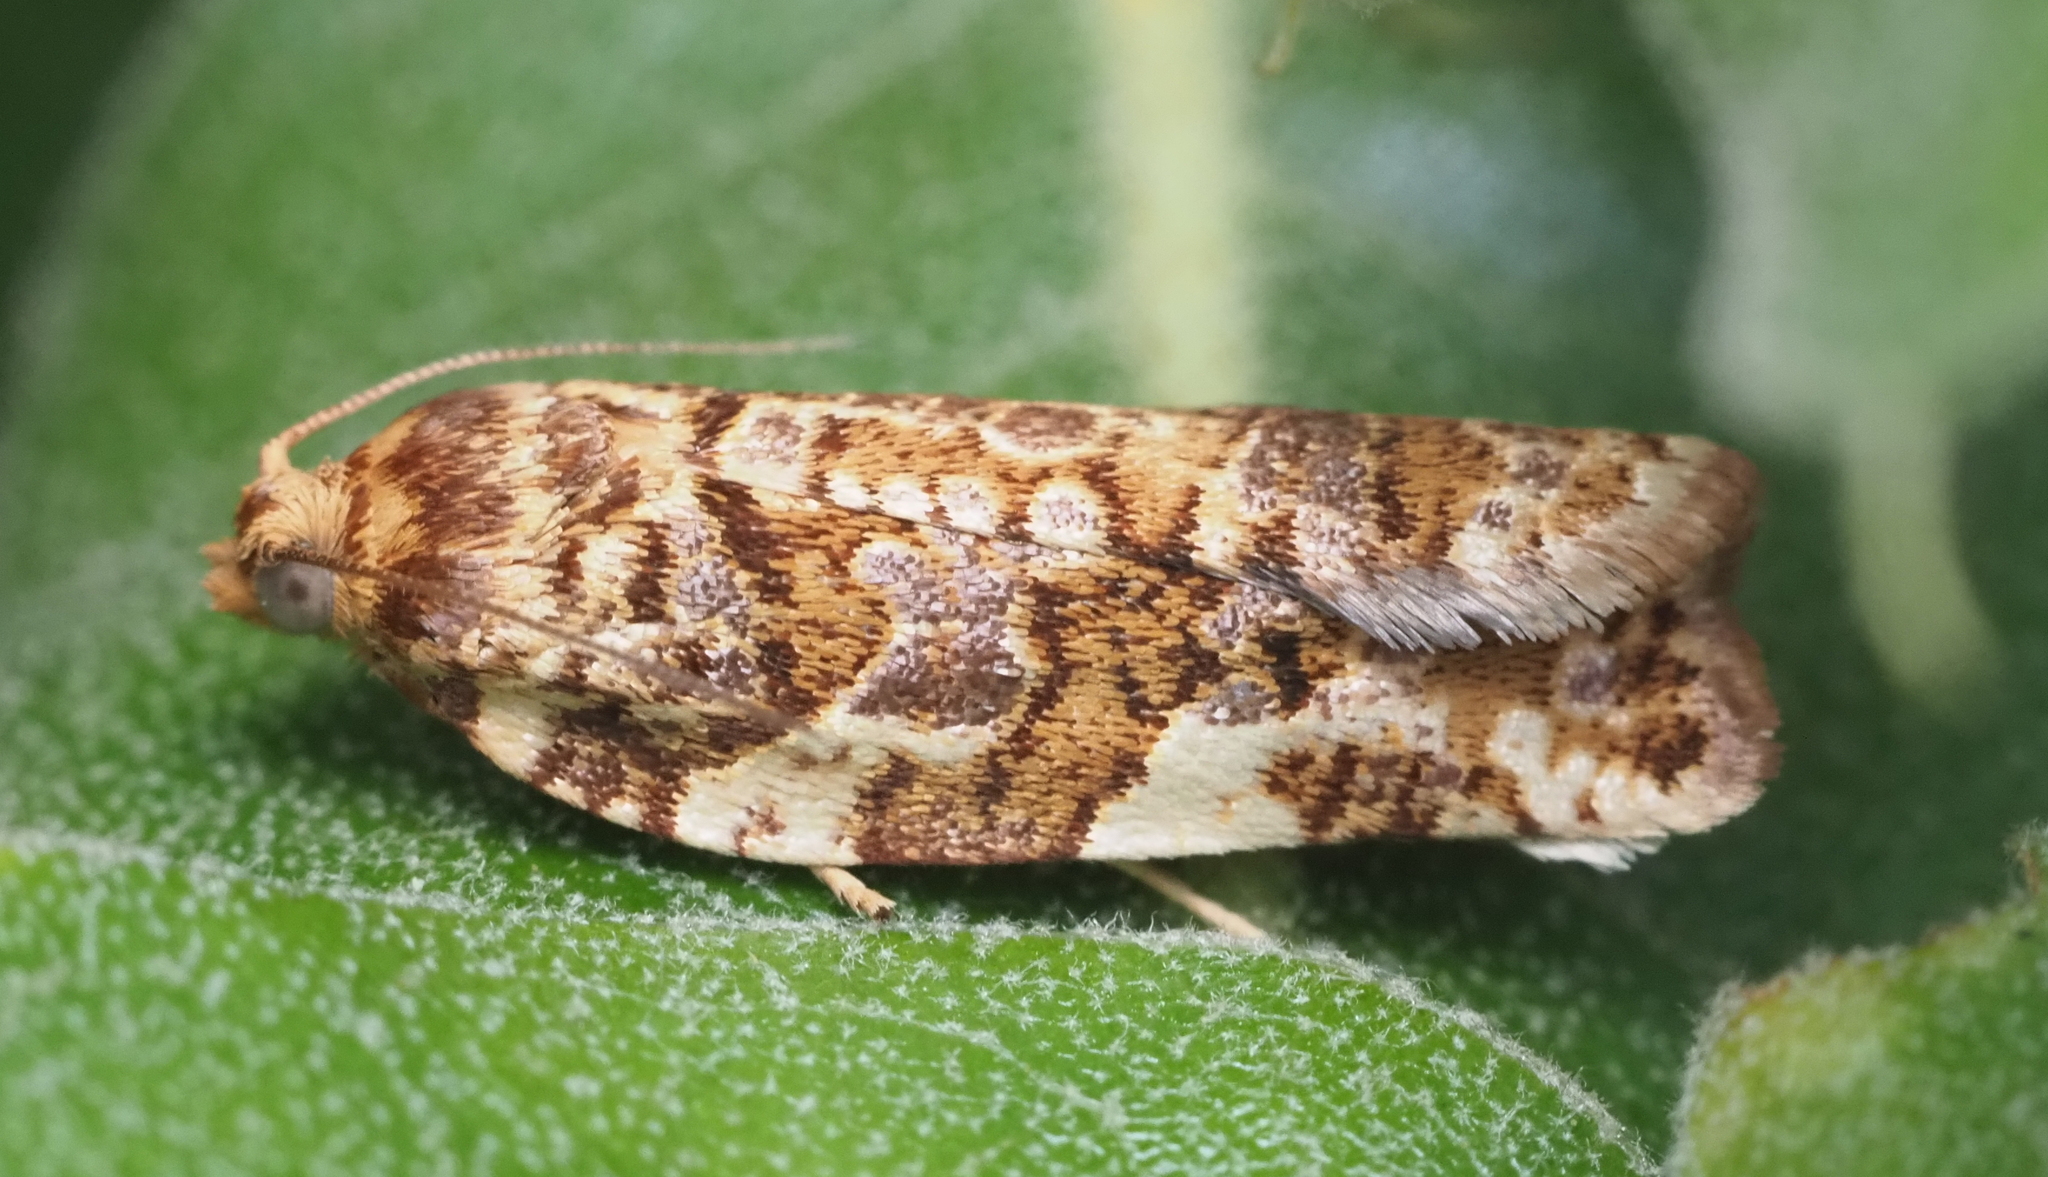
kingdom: Animalia
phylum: Arthropoda
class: Insecta
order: Lepidoptera
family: Tortricidae
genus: Archips
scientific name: Archips argyrospila
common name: Fruit-tree leafroller moth
